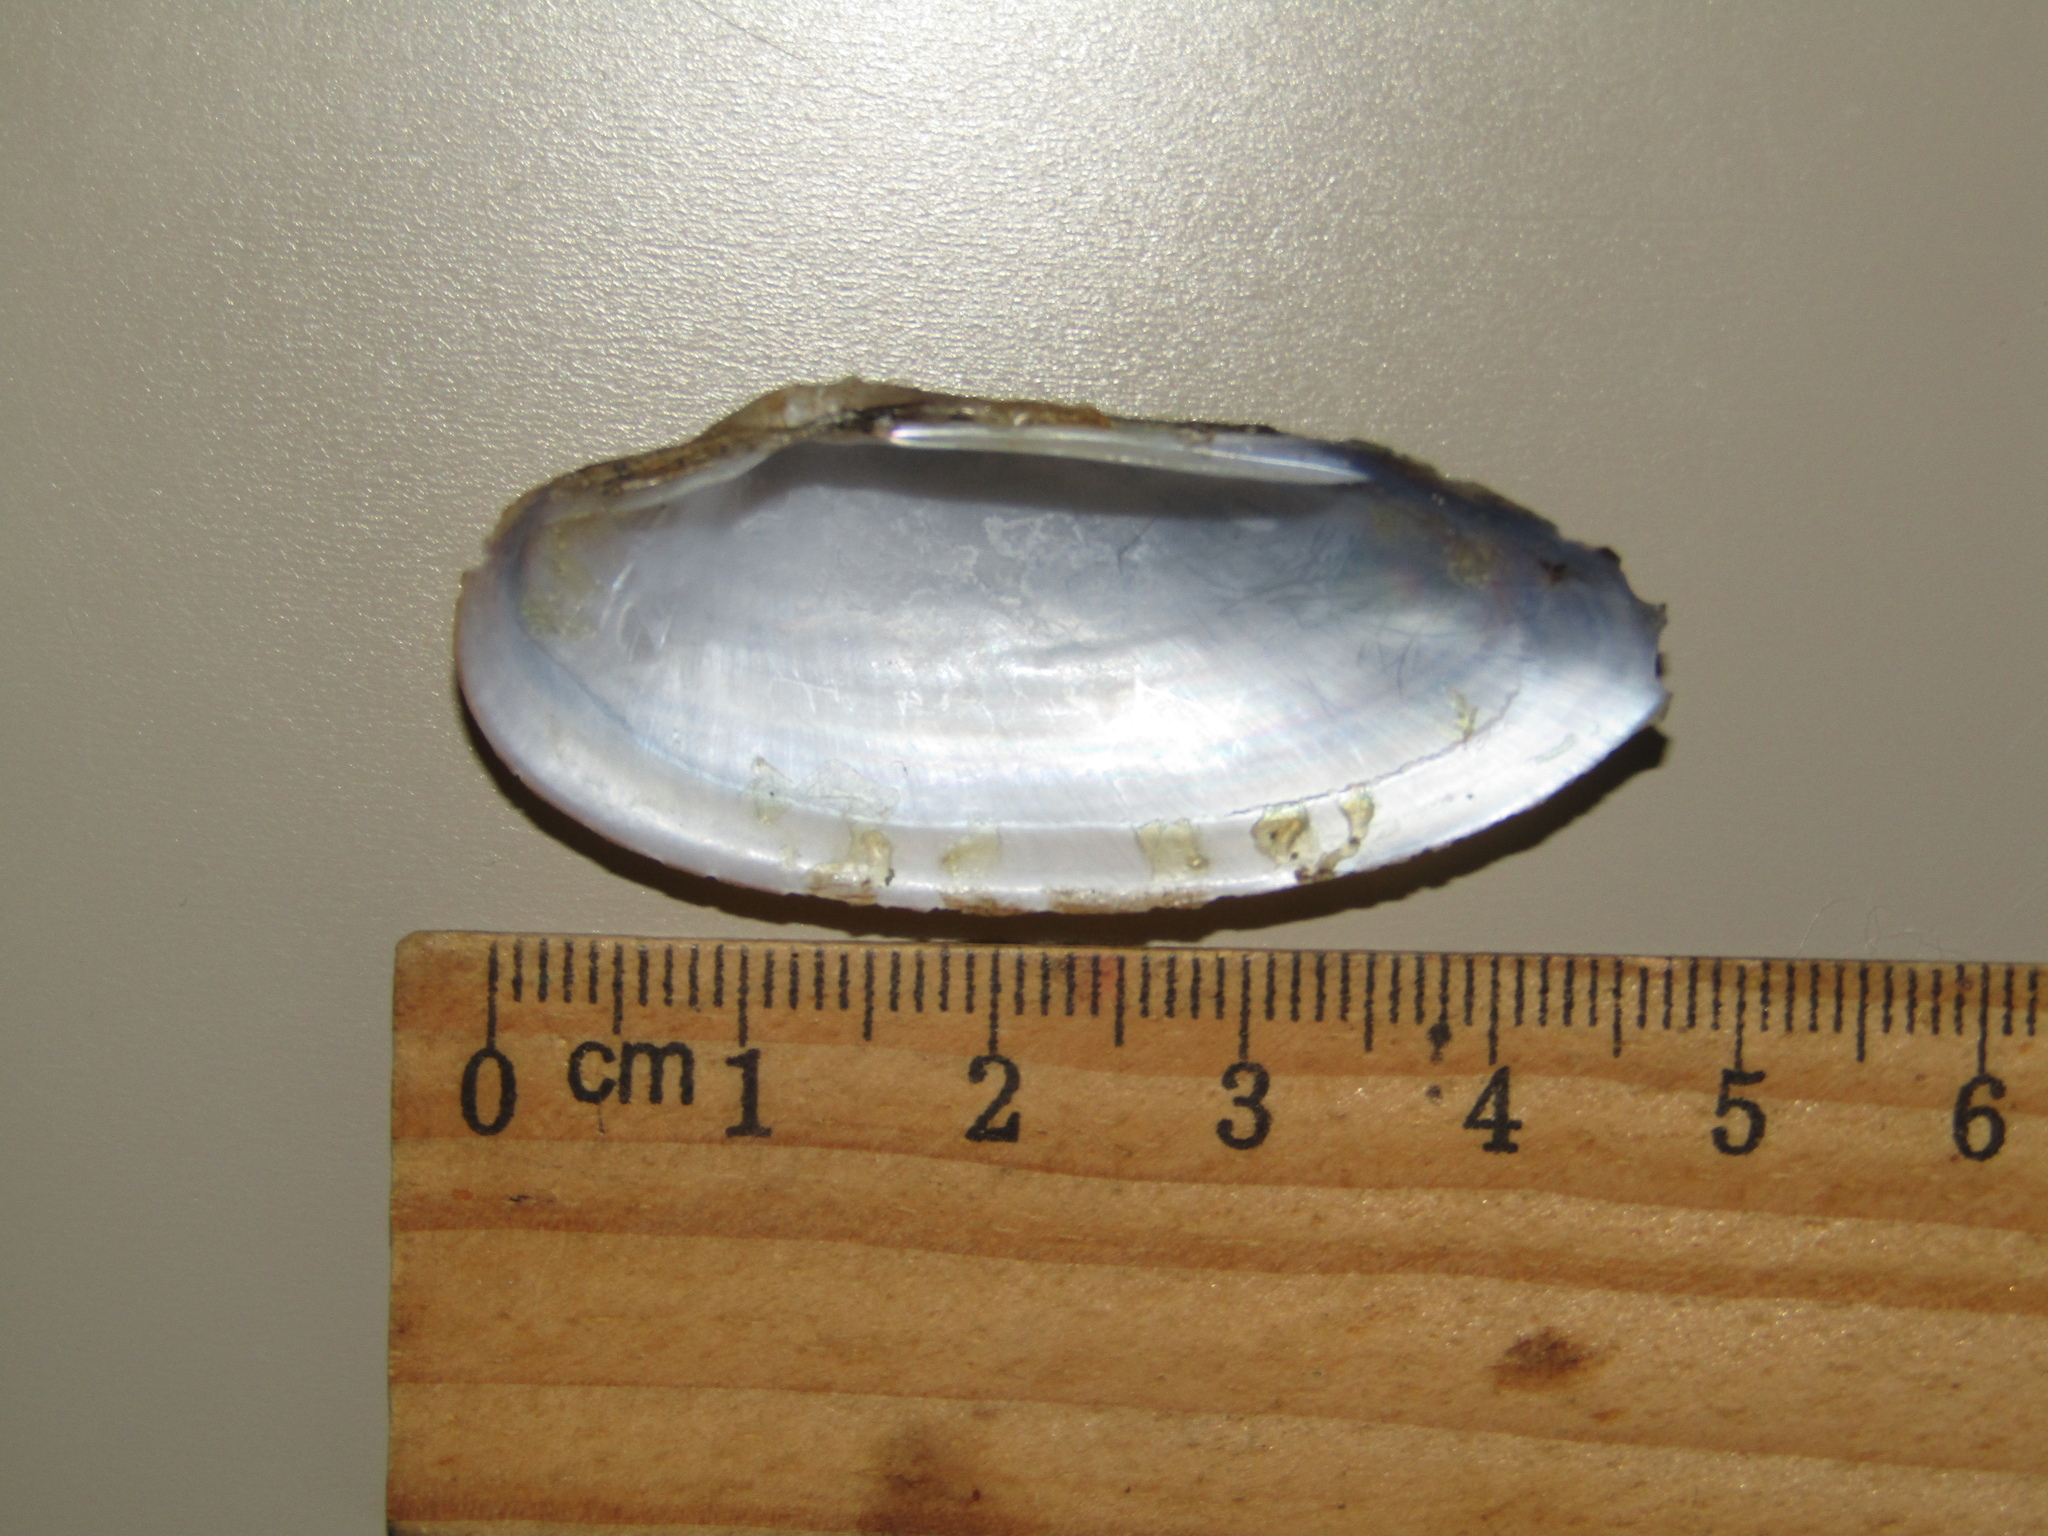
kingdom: Animalia
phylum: Mollusca
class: Bivalvia
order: Unionida
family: Unionidae
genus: Unio
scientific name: Unio pictorum
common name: Painter's mussel
